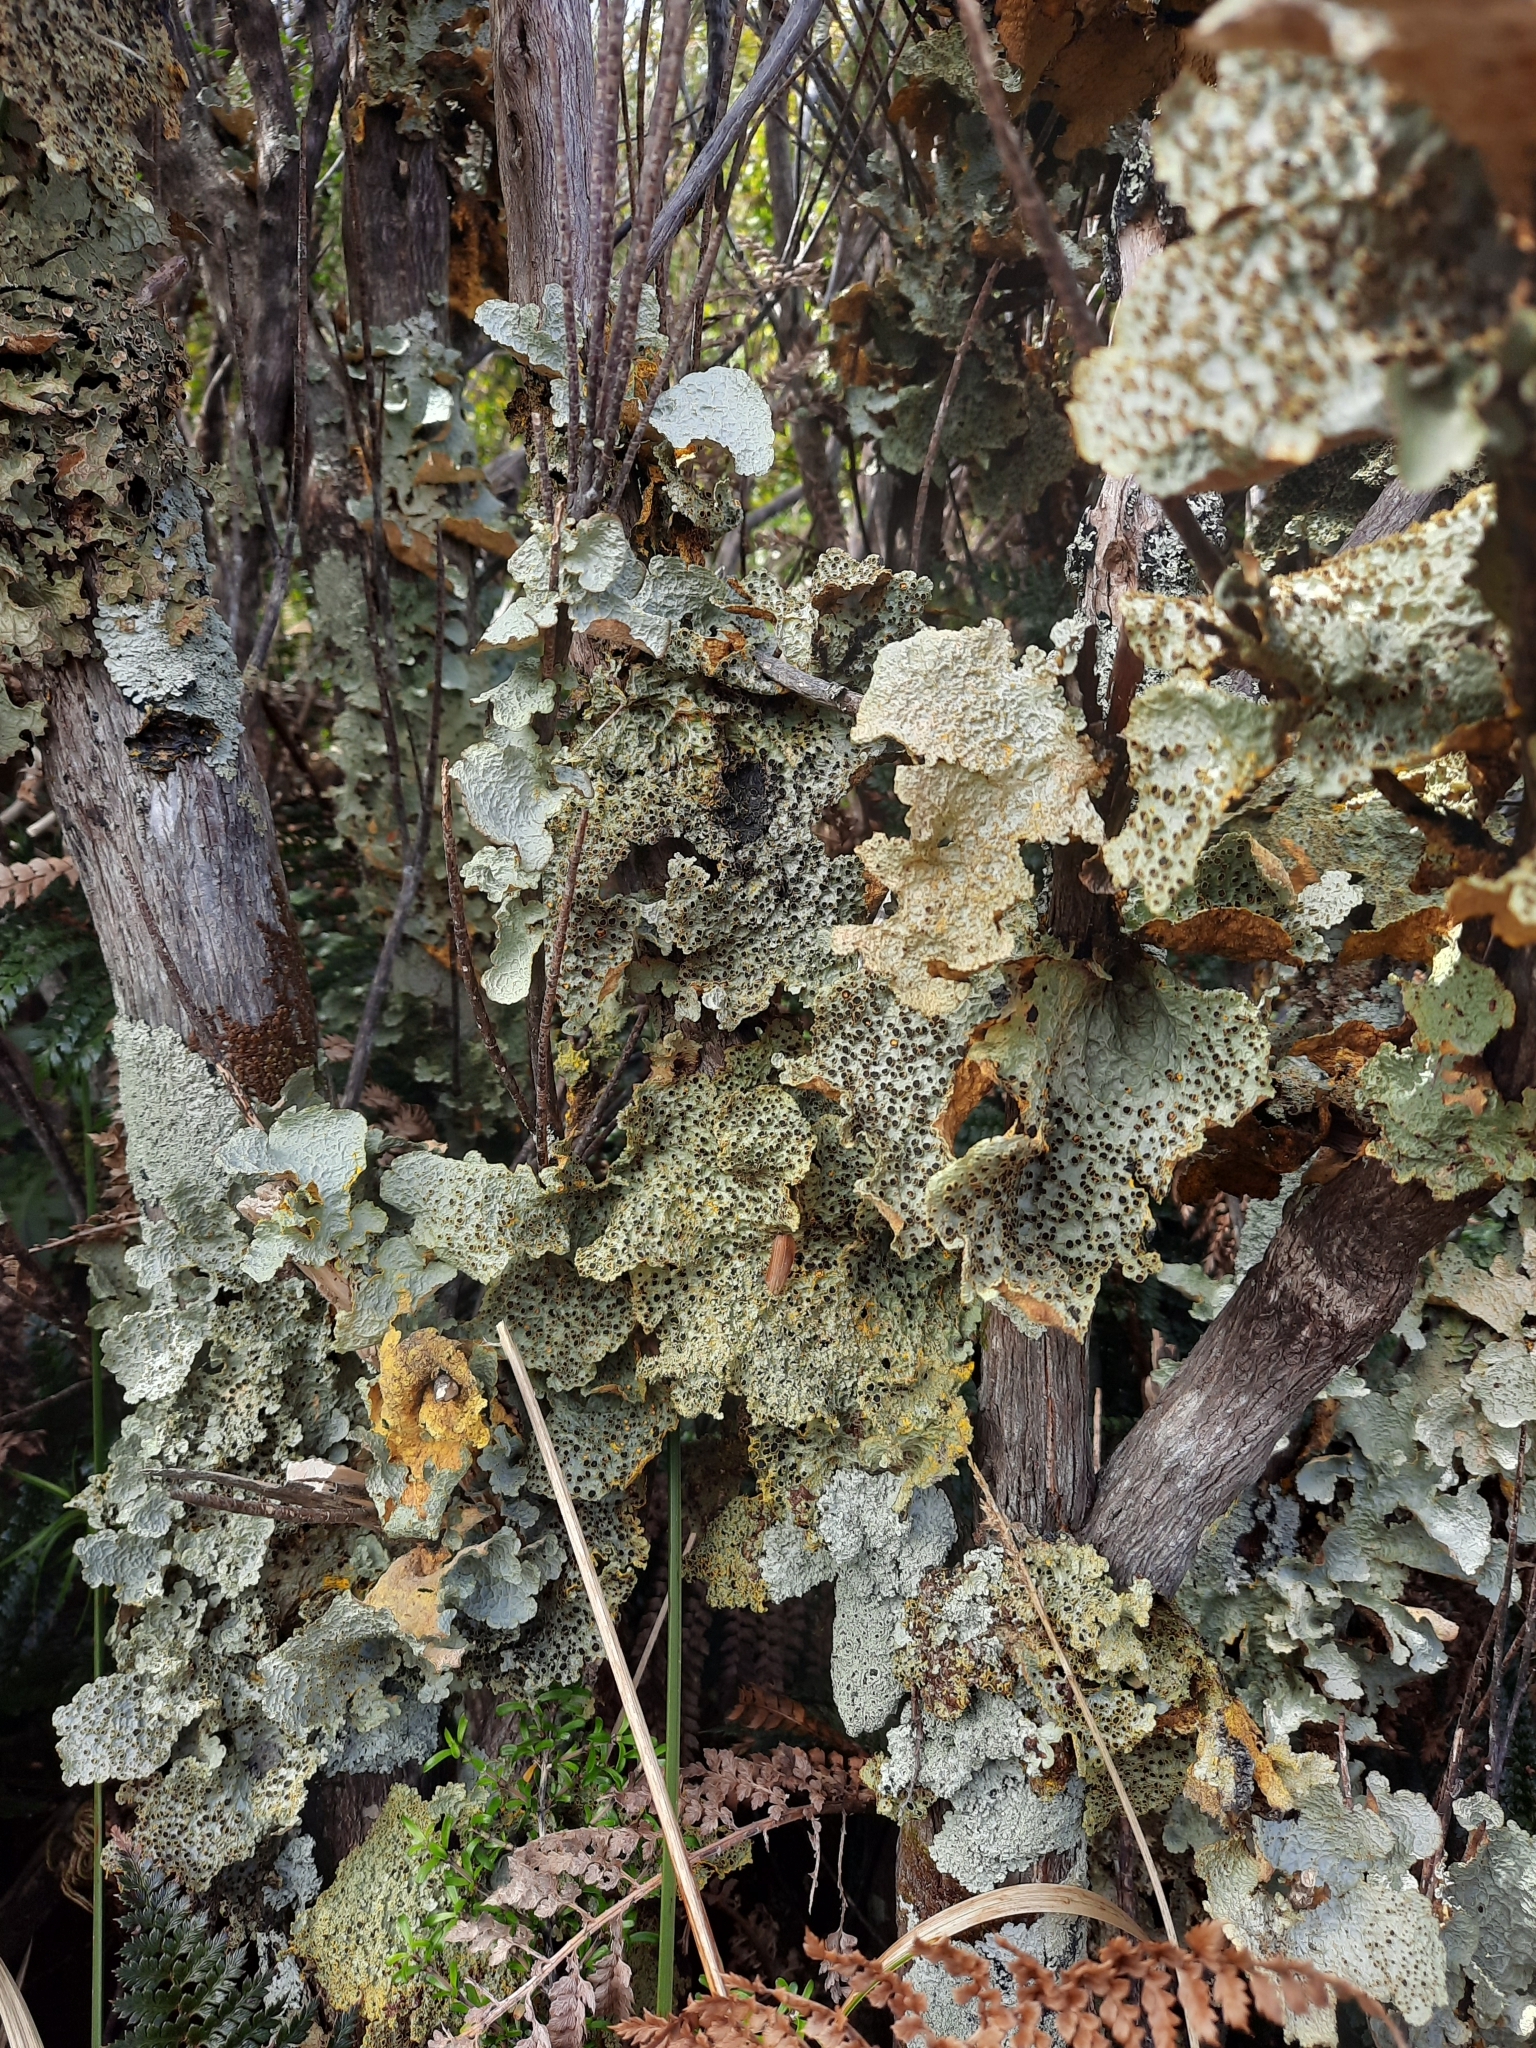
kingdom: Fungi
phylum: Ascomycota
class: Lecanoromycetes
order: Peltigerales
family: Lobariaceae
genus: Yarrumia
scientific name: Yarrumia coronata
